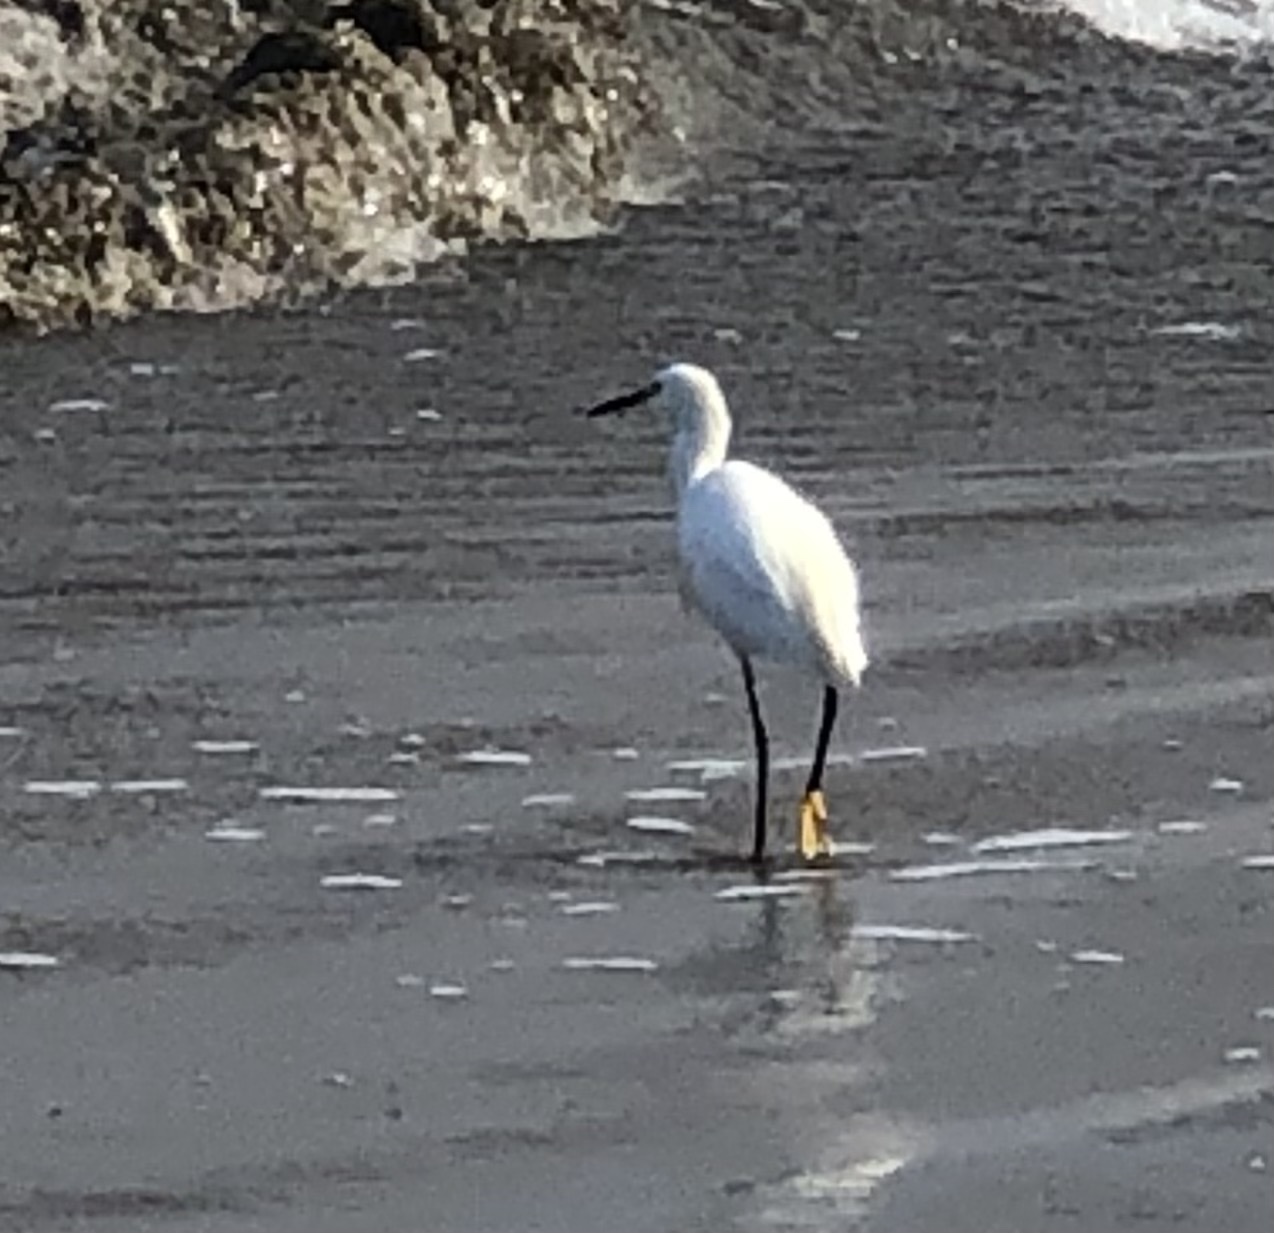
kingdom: Animalia
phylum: Chordata
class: Aves
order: Pelecaniformes
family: Ardeidae
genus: Egretta
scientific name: Egretta thula
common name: Snowy egret
